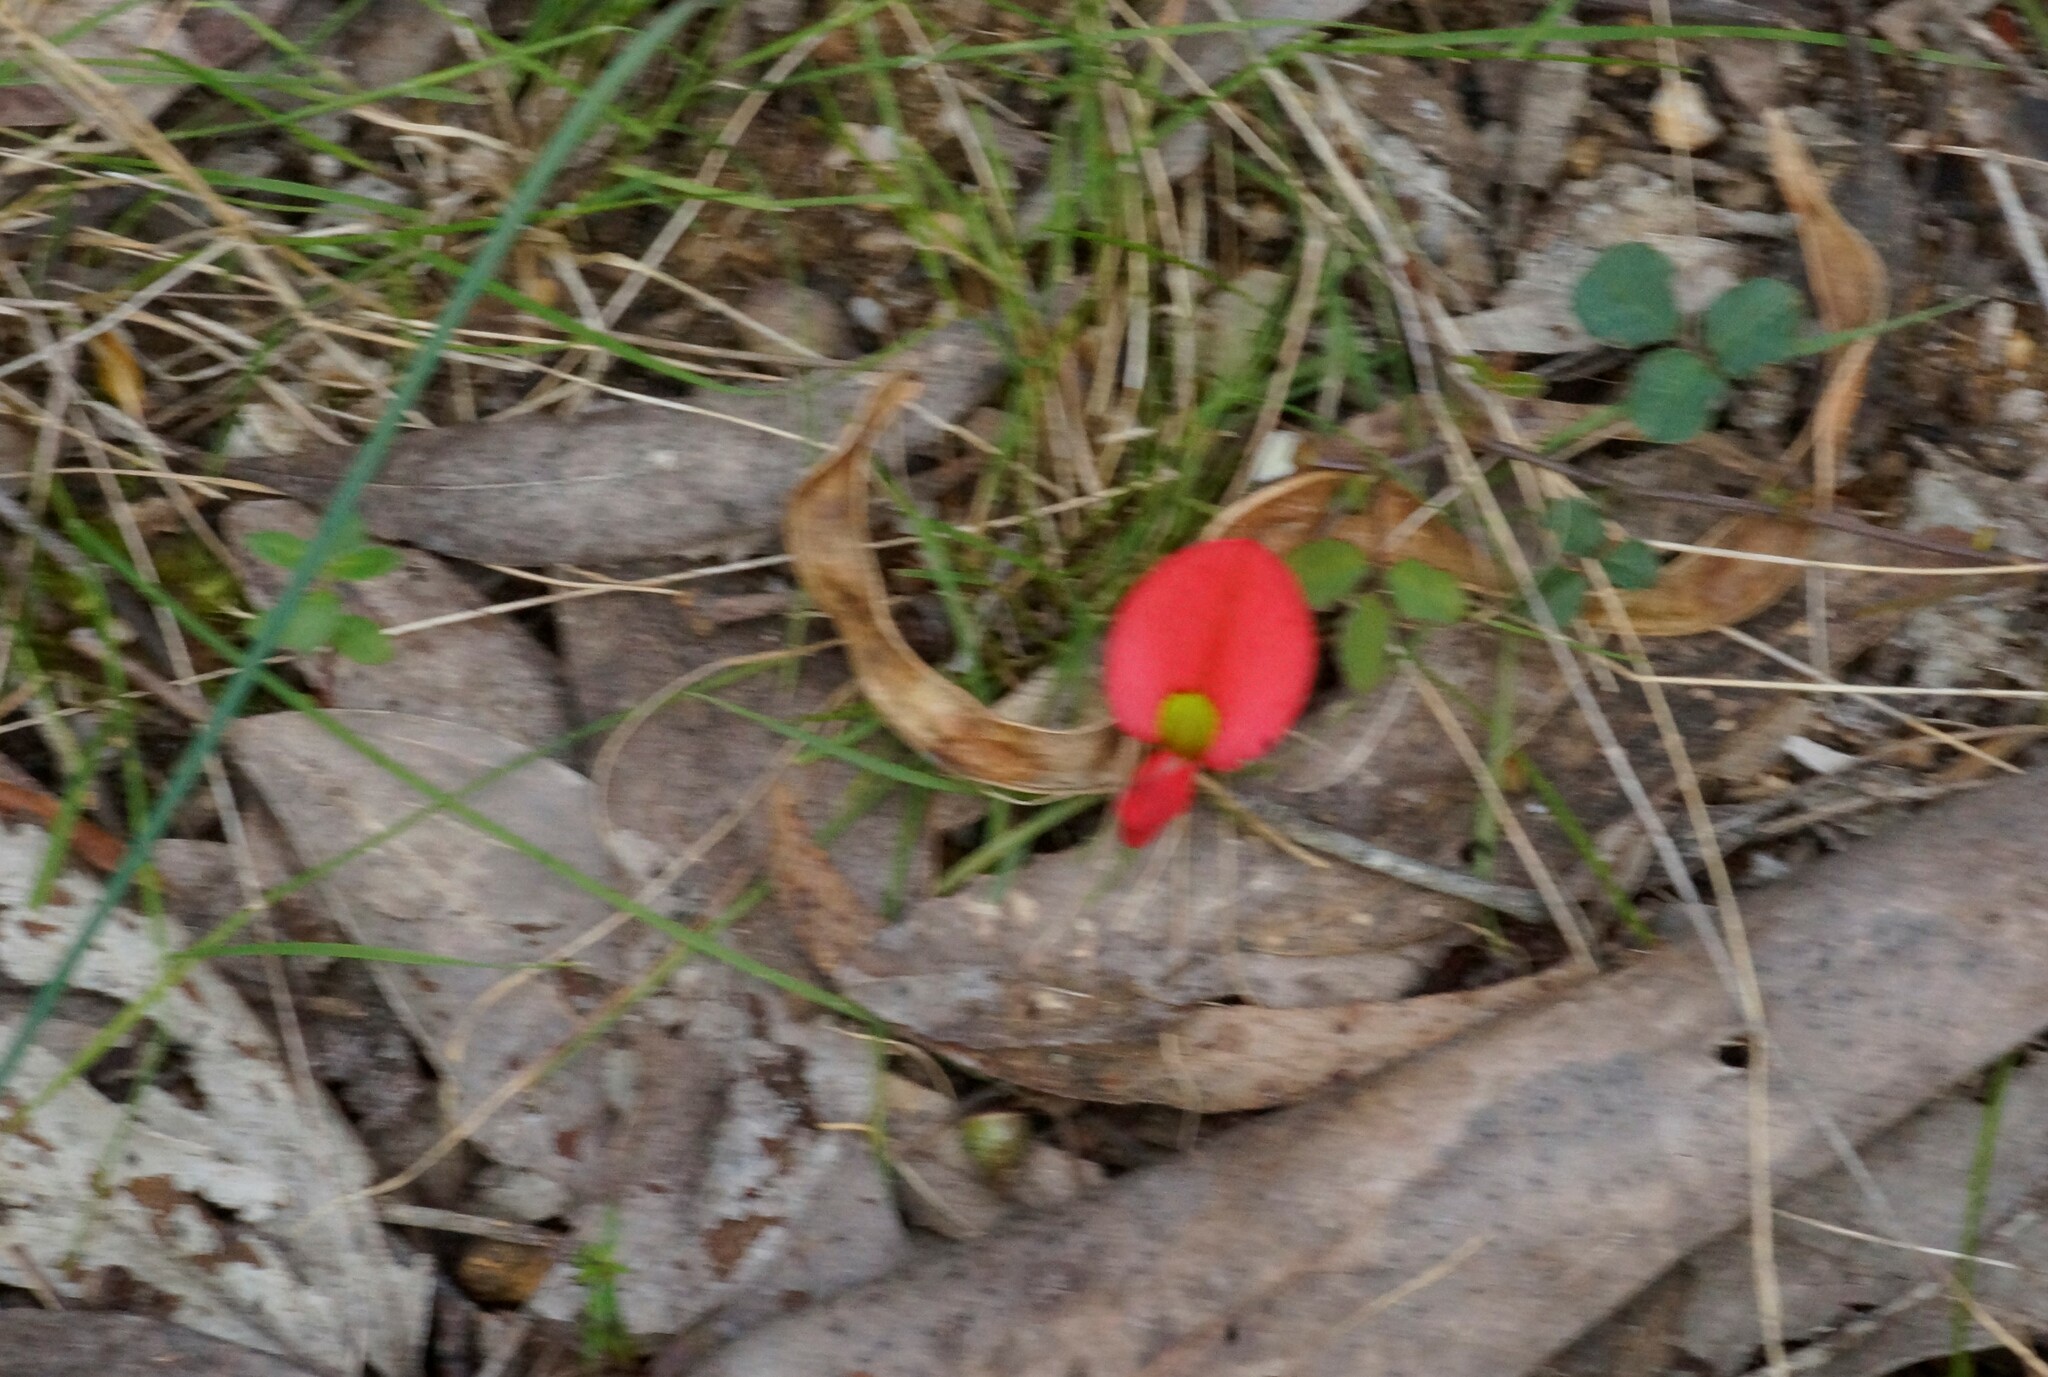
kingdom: Plantae
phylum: Tracheophyta
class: Magnoliopsida
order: Fabales
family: Fabaceae
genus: Kennedia
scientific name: Kennedia prostrata
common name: Running-postman
